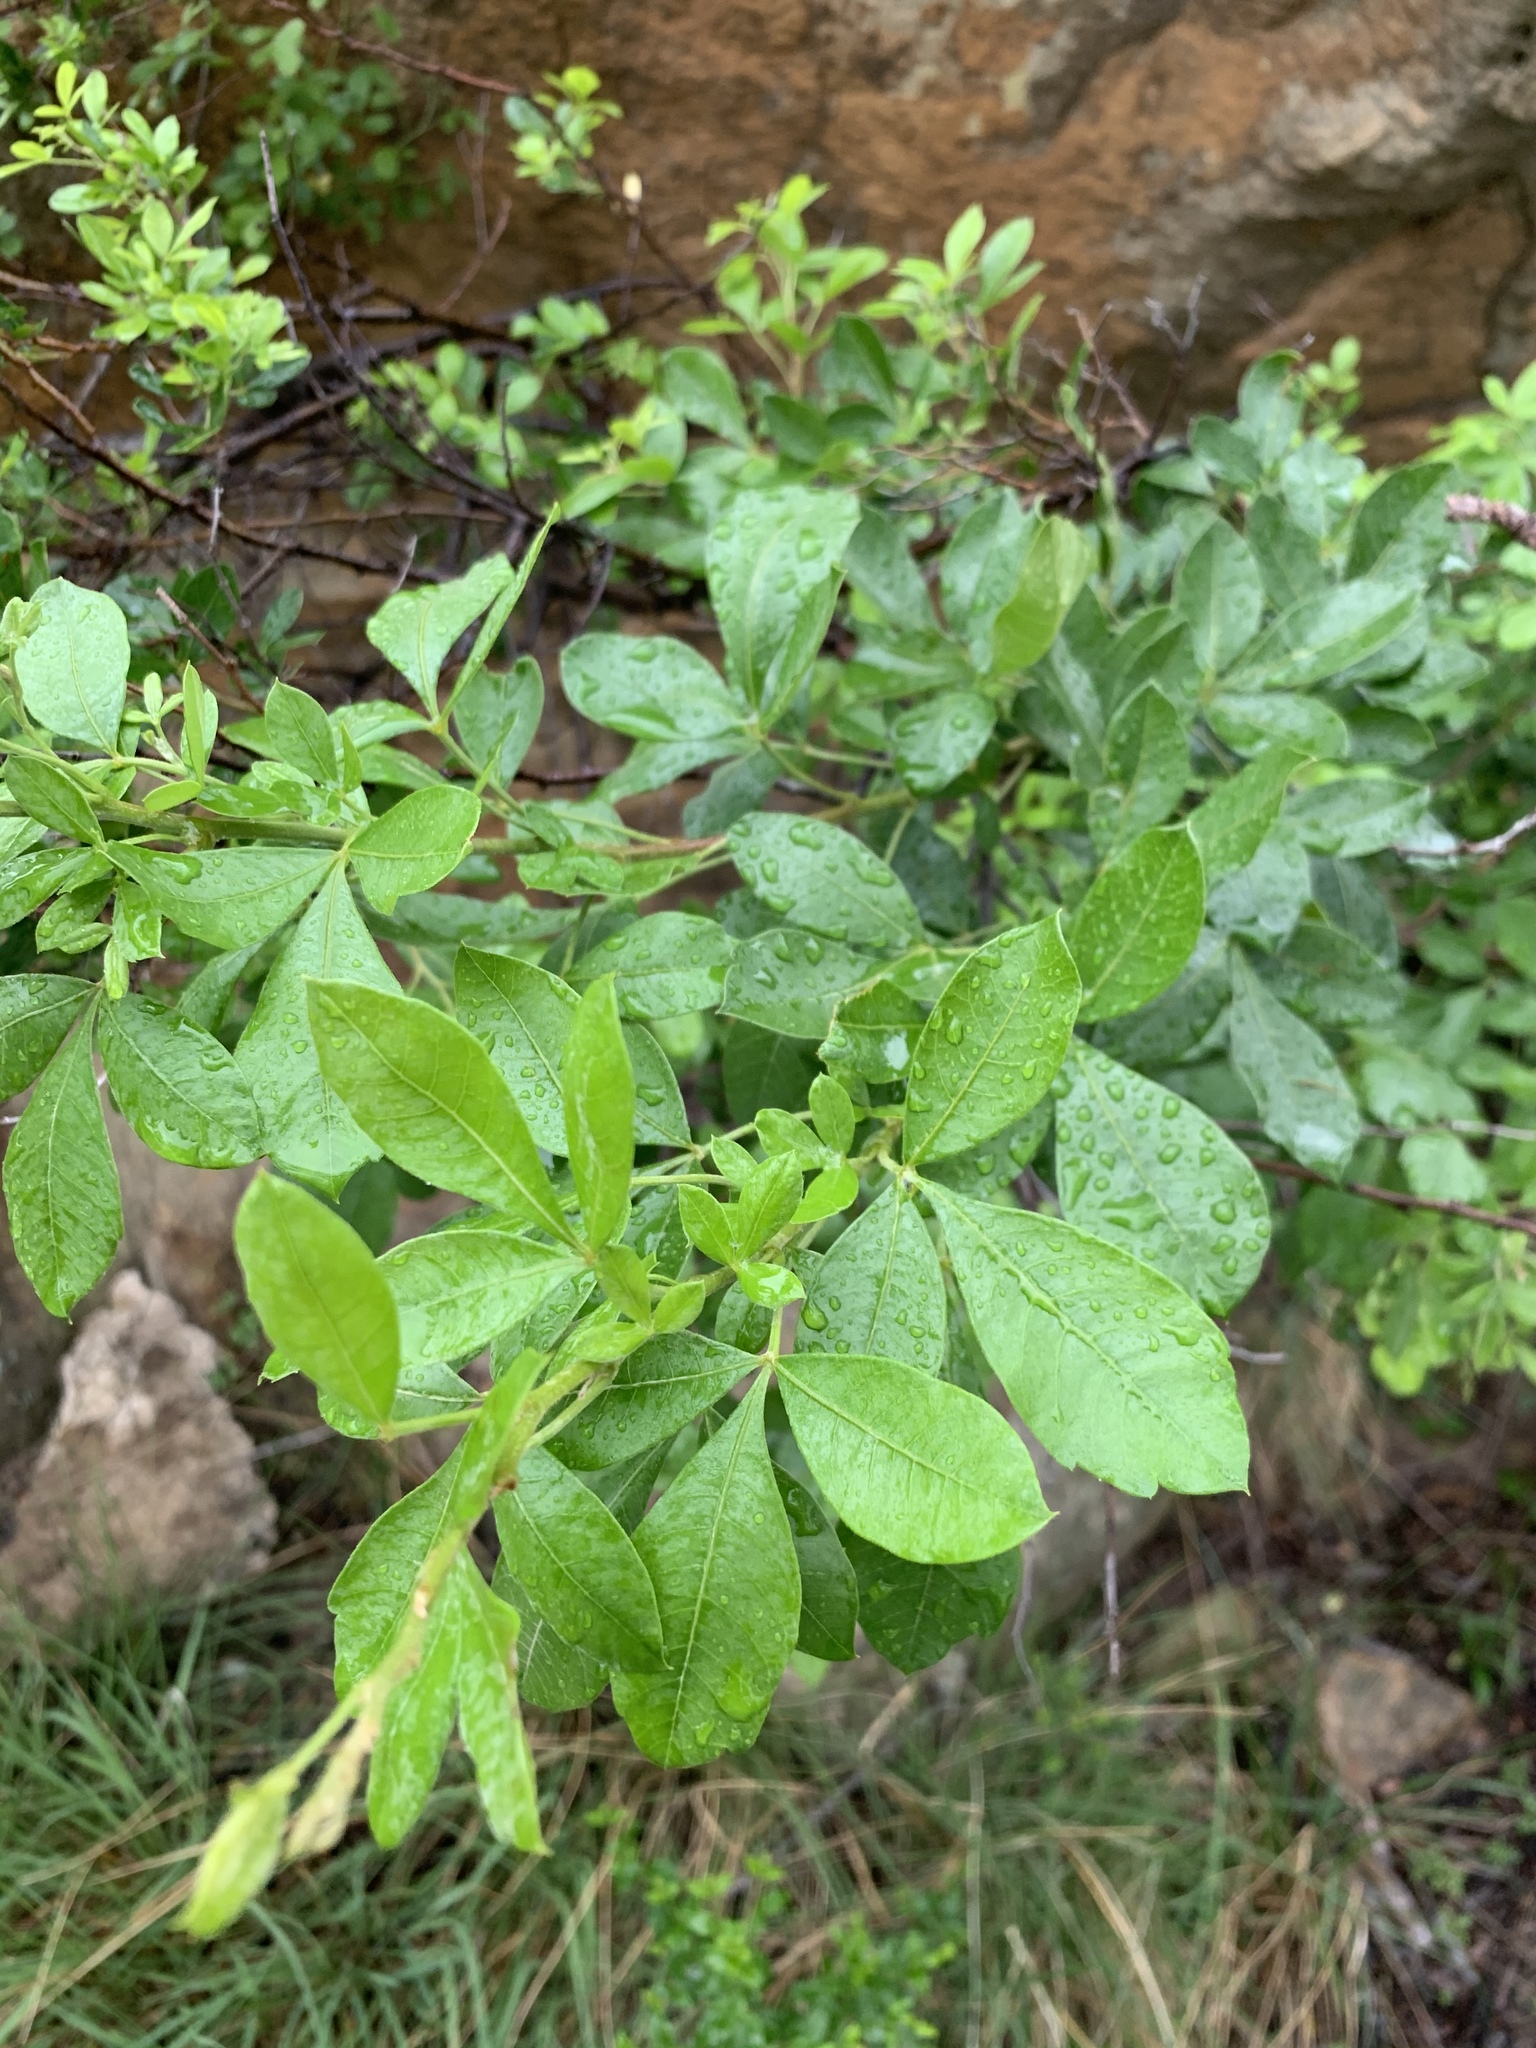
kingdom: Plantae
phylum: Tracheophyta
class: Magnoliopsida
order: Sapindales
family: Anacardiaceae
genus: Searsia
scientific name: Searsia pyroides
